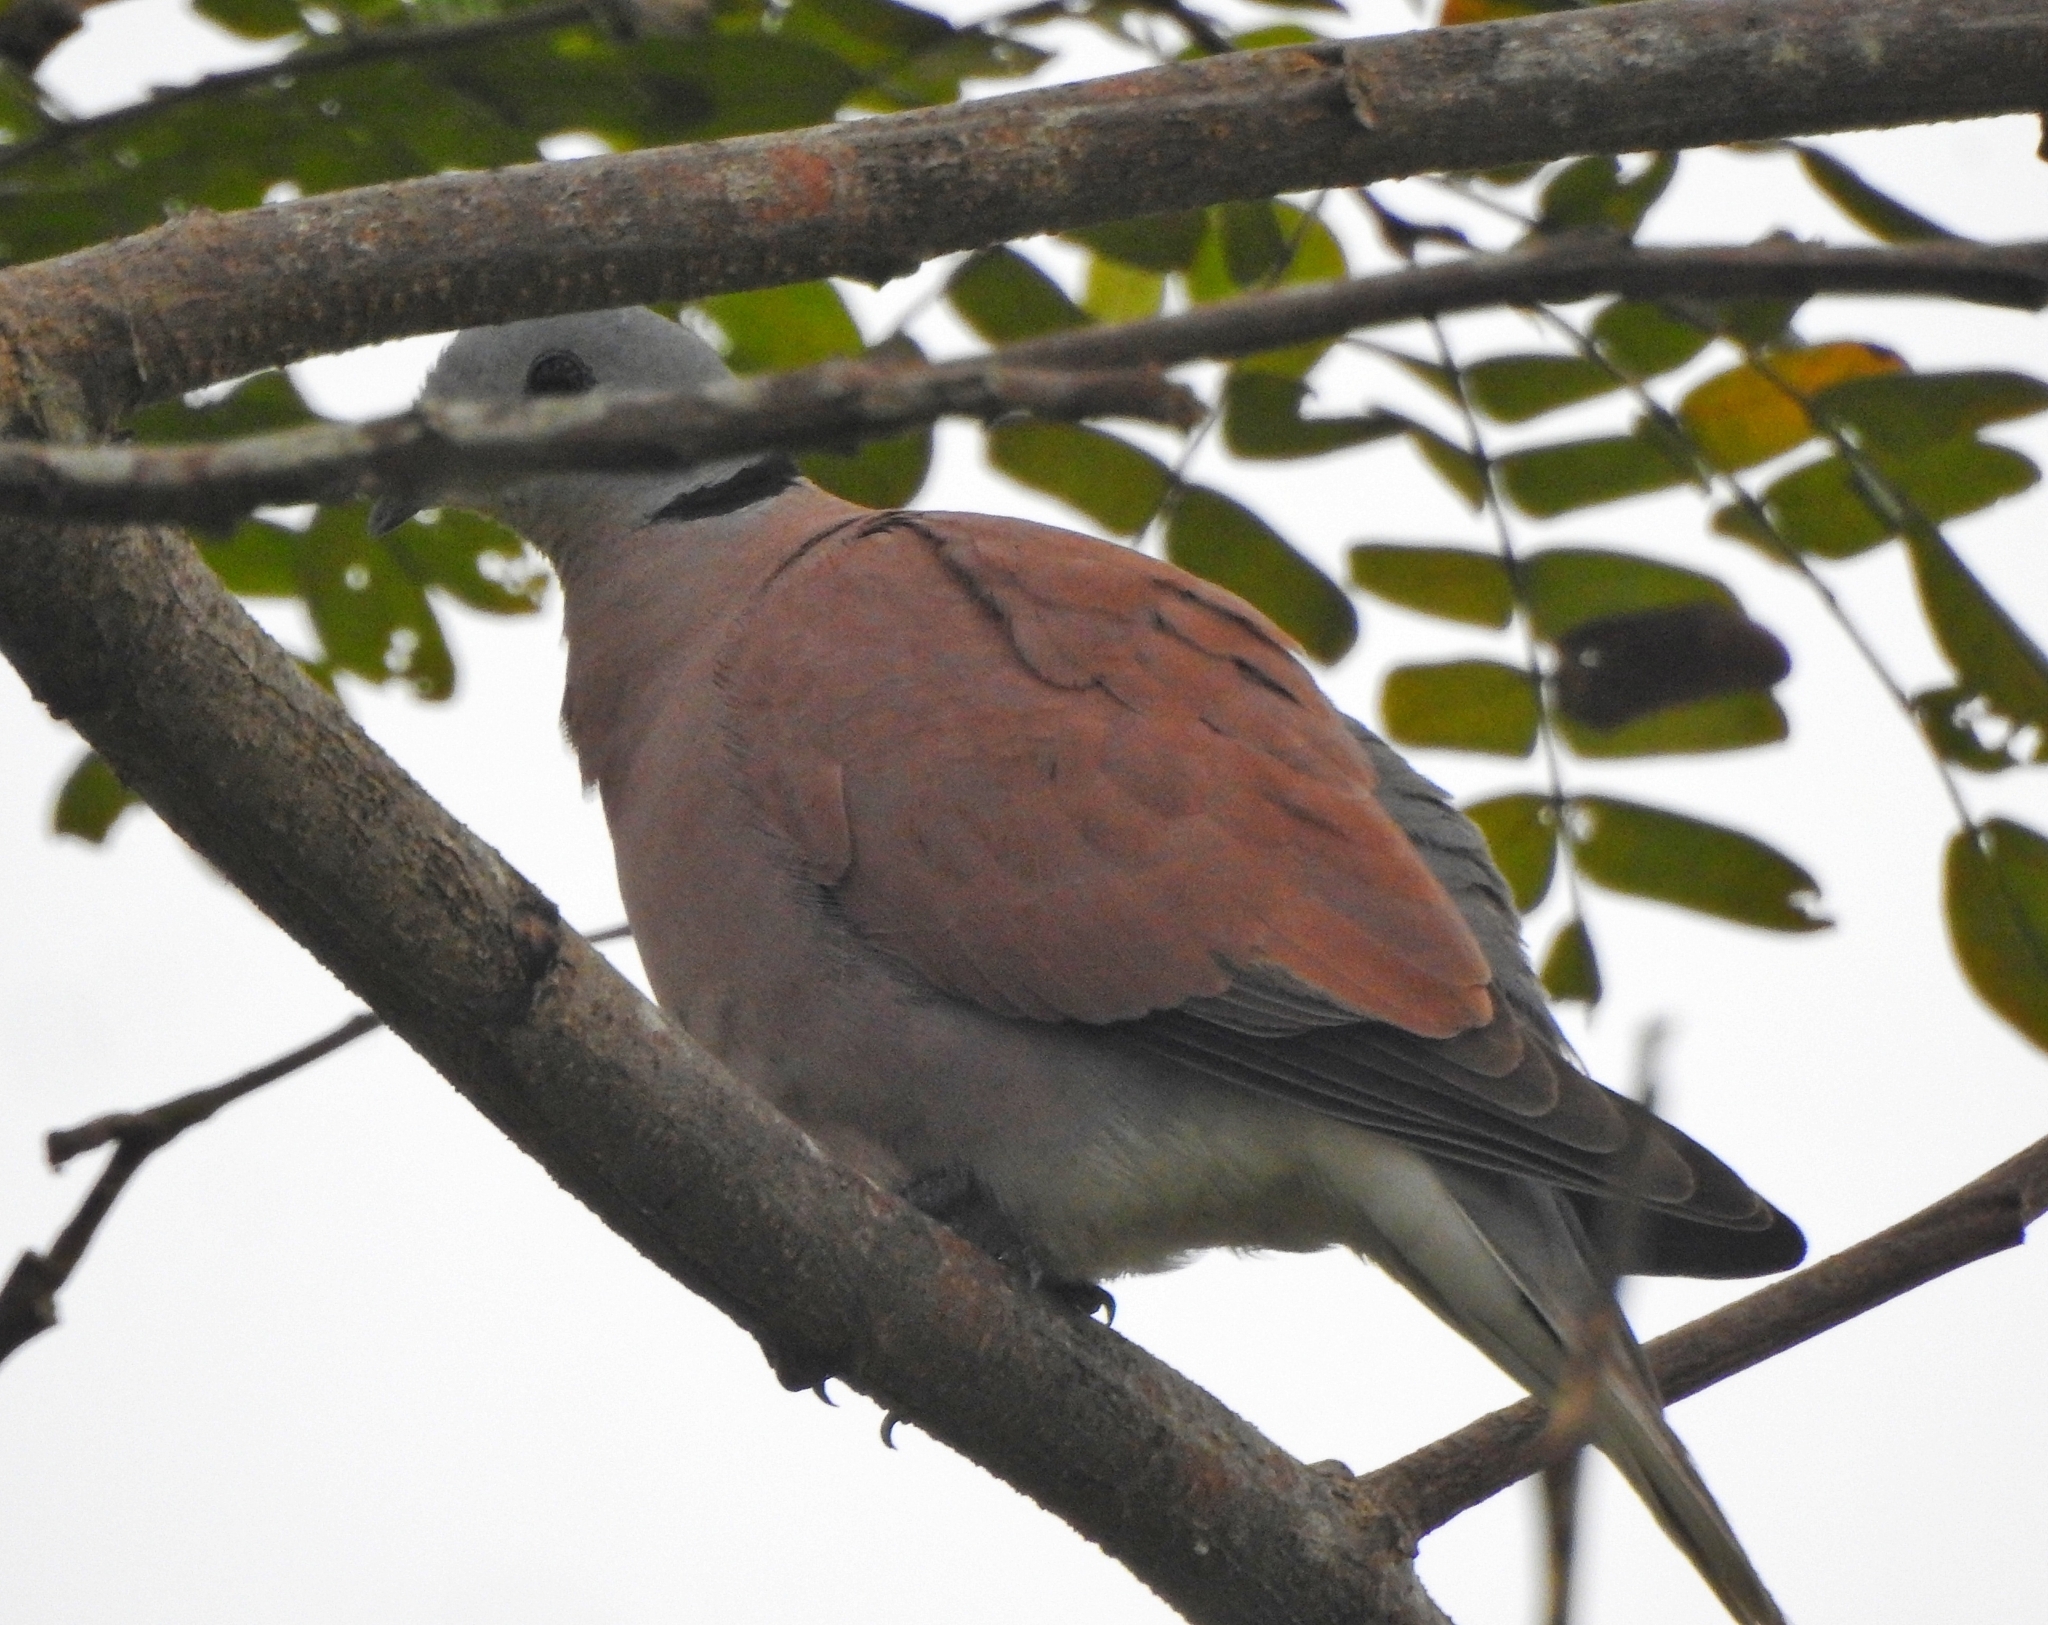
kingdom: Animalia
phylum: Chordata
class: Aves
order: Columbiformes
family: Columbidae
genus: Streptopelia
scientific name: Streptopelia tranquebarica
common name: Red turtle dove
